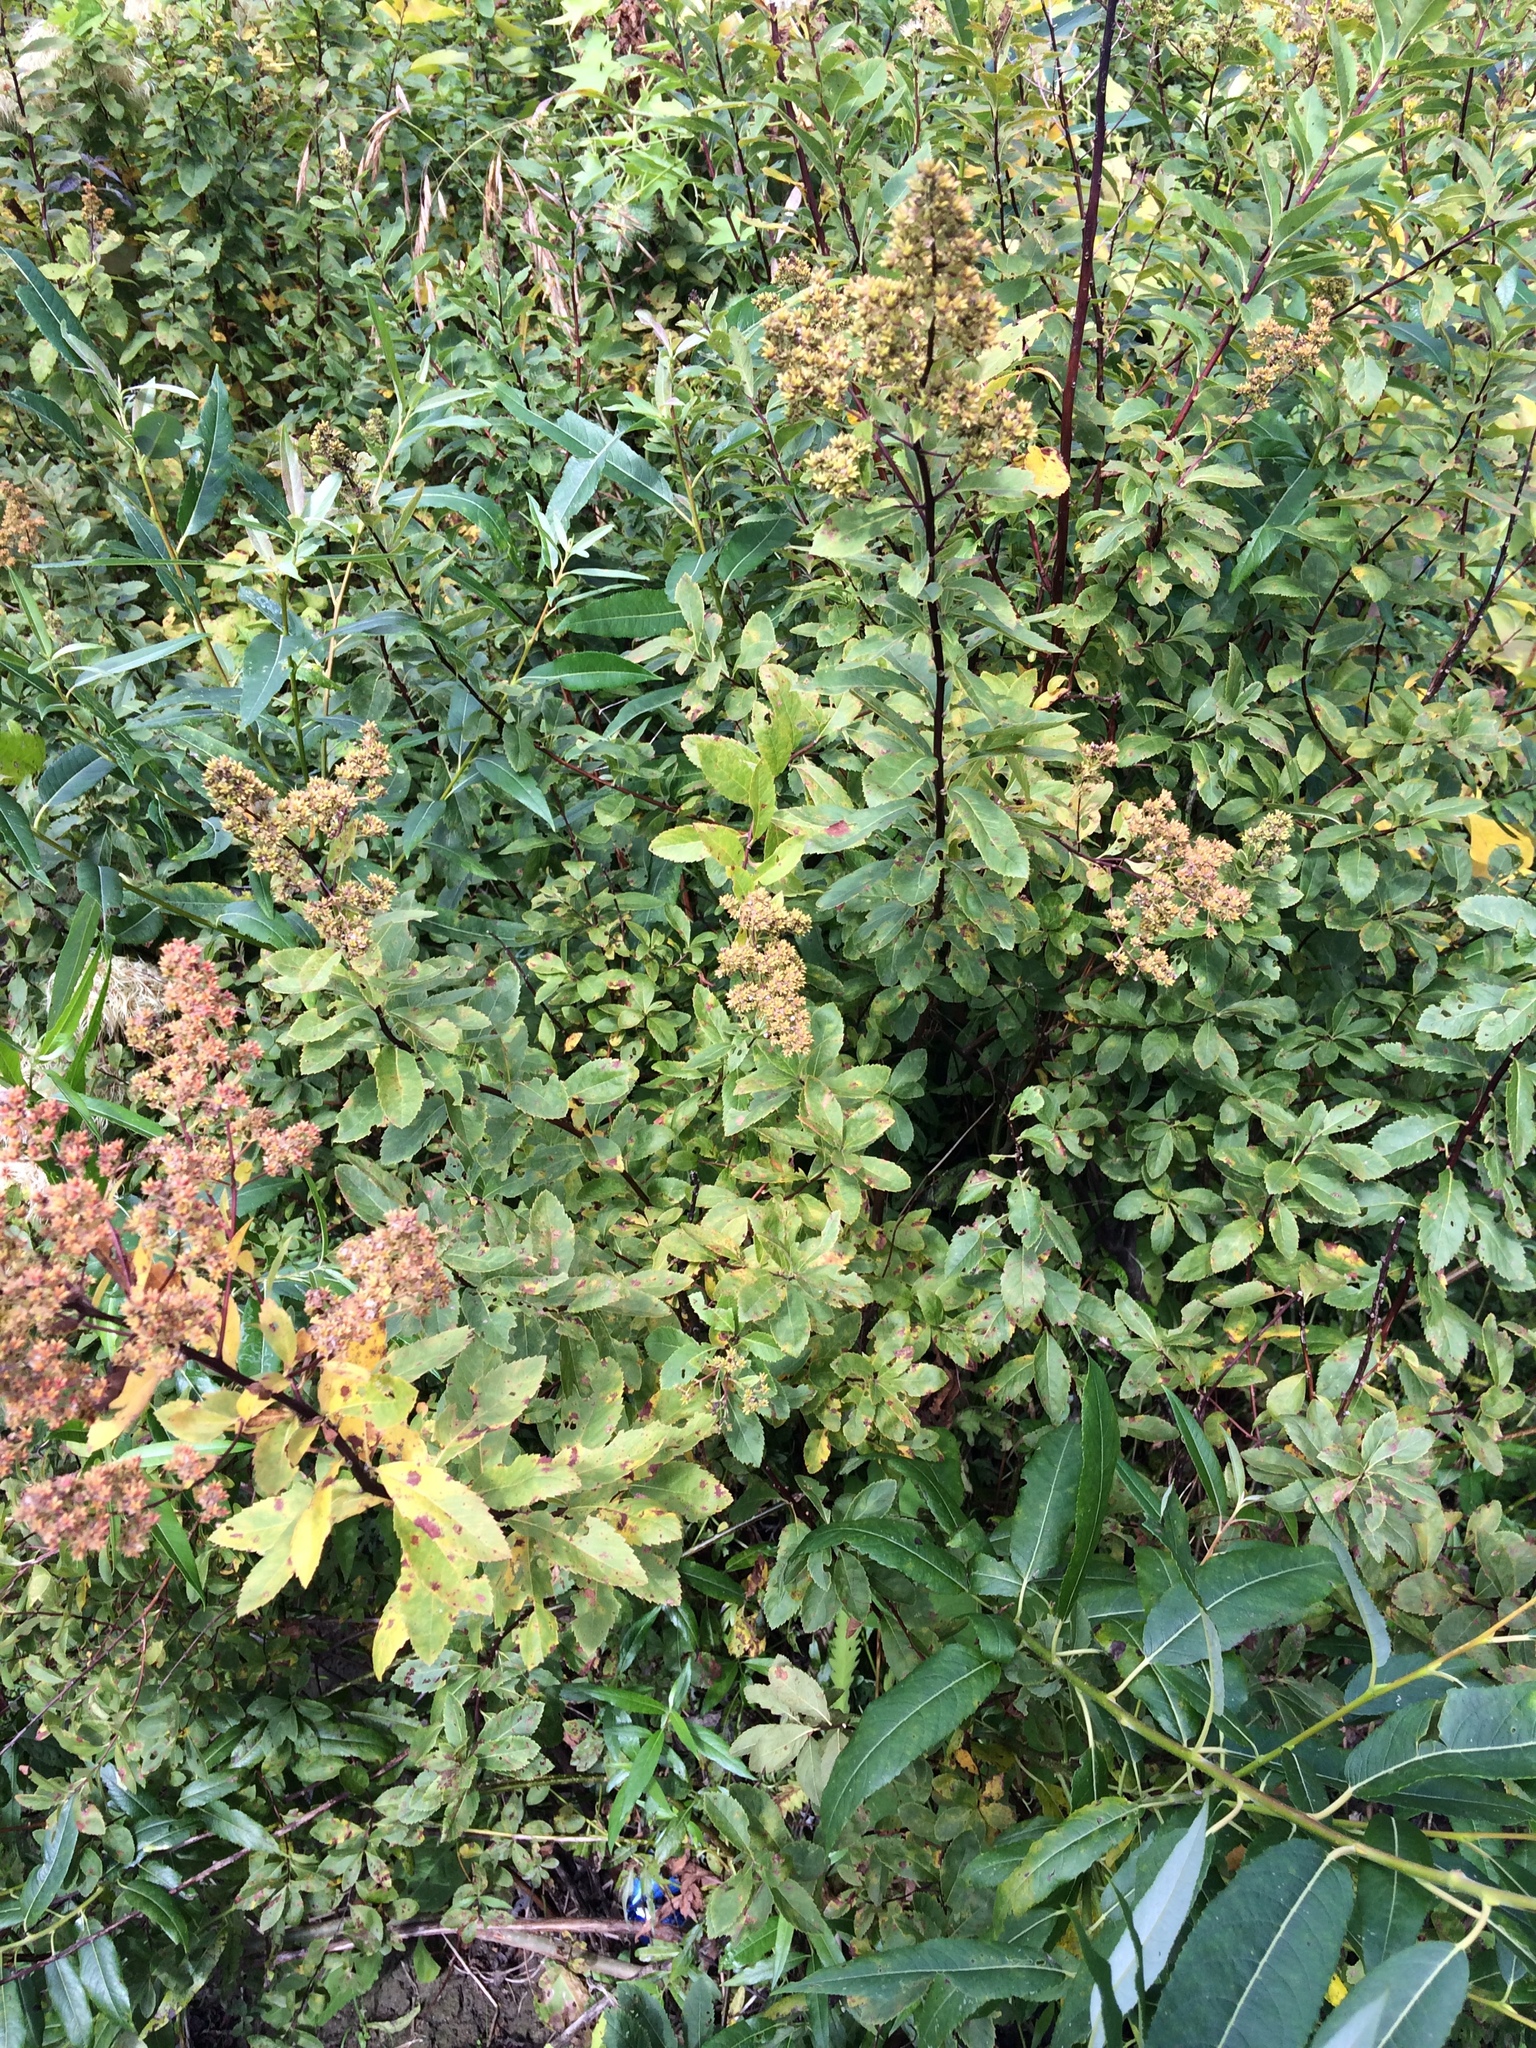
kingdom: Plantae
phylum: Tracheophyta
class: Magnoliopsida
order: Rosales
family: Rosaceae
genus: Spiraea
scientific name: Spiraea alba
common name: Pale bridewort
